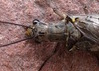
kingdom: Animalia
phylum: Arthropoda
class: Insecta
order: Megaloptera
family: Corydalidae
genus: Chauliodes
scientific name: Chauliodes rastricornis
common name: Spring fishfly
